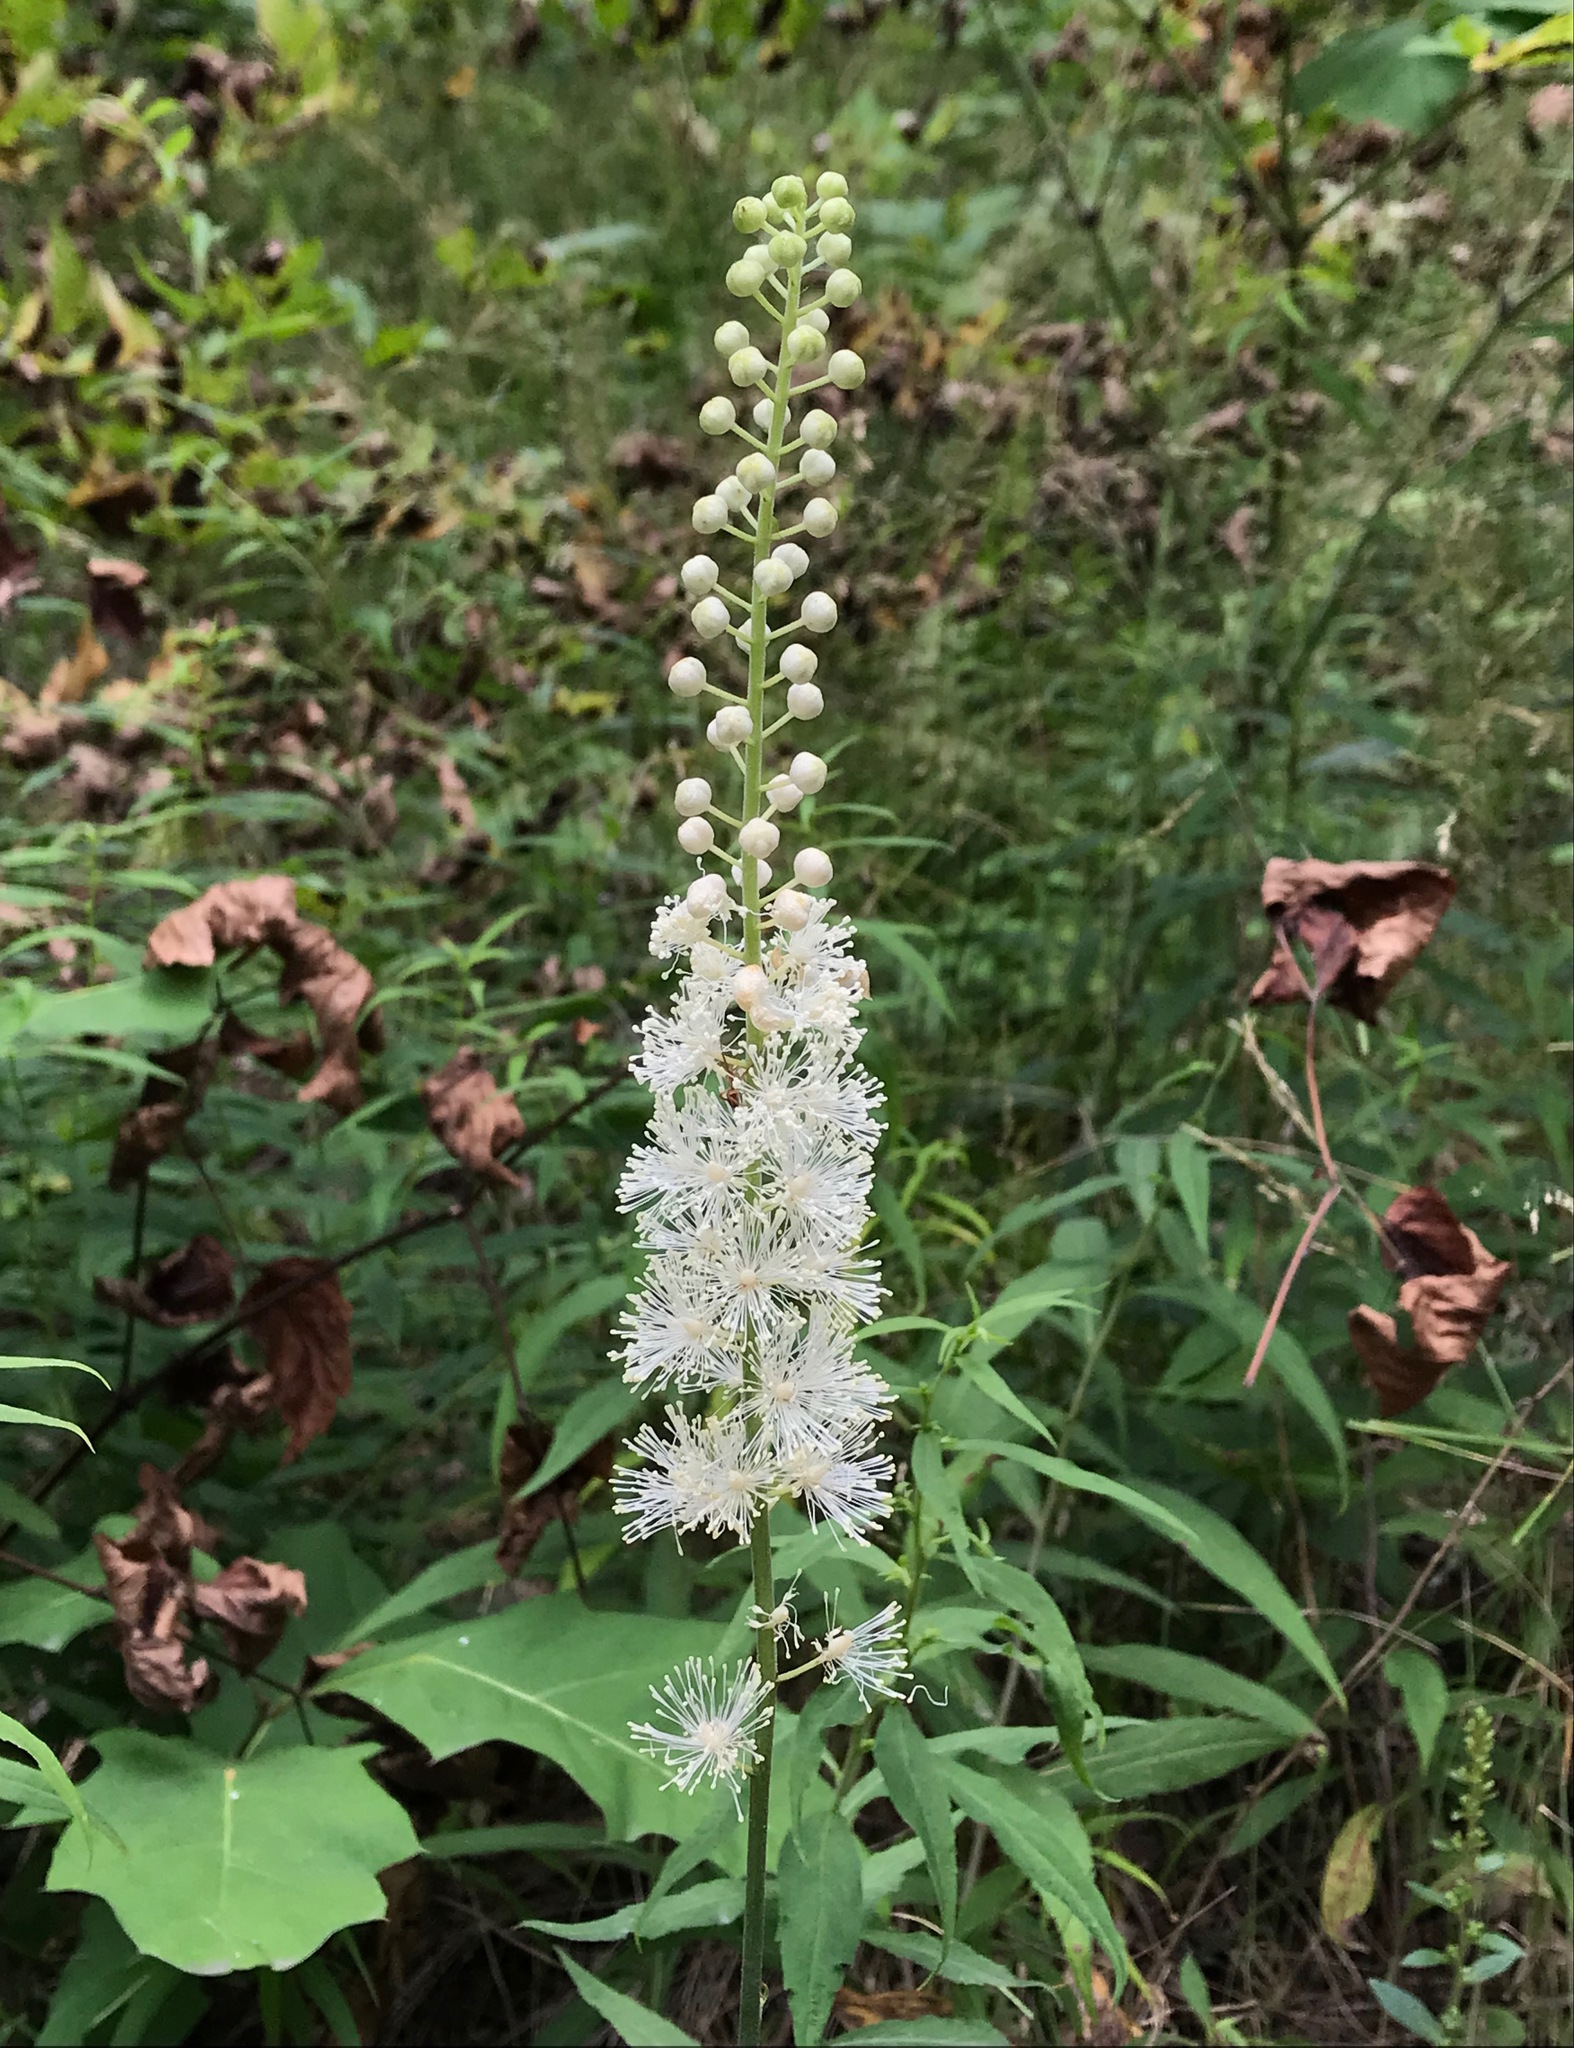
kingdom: Plantae
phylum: Tracheophyta
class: Magnoliopsida
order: Ranunculales
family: Ranunculaceae
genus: Actaea
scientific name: Actaea racemosa
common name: Black cohosh
